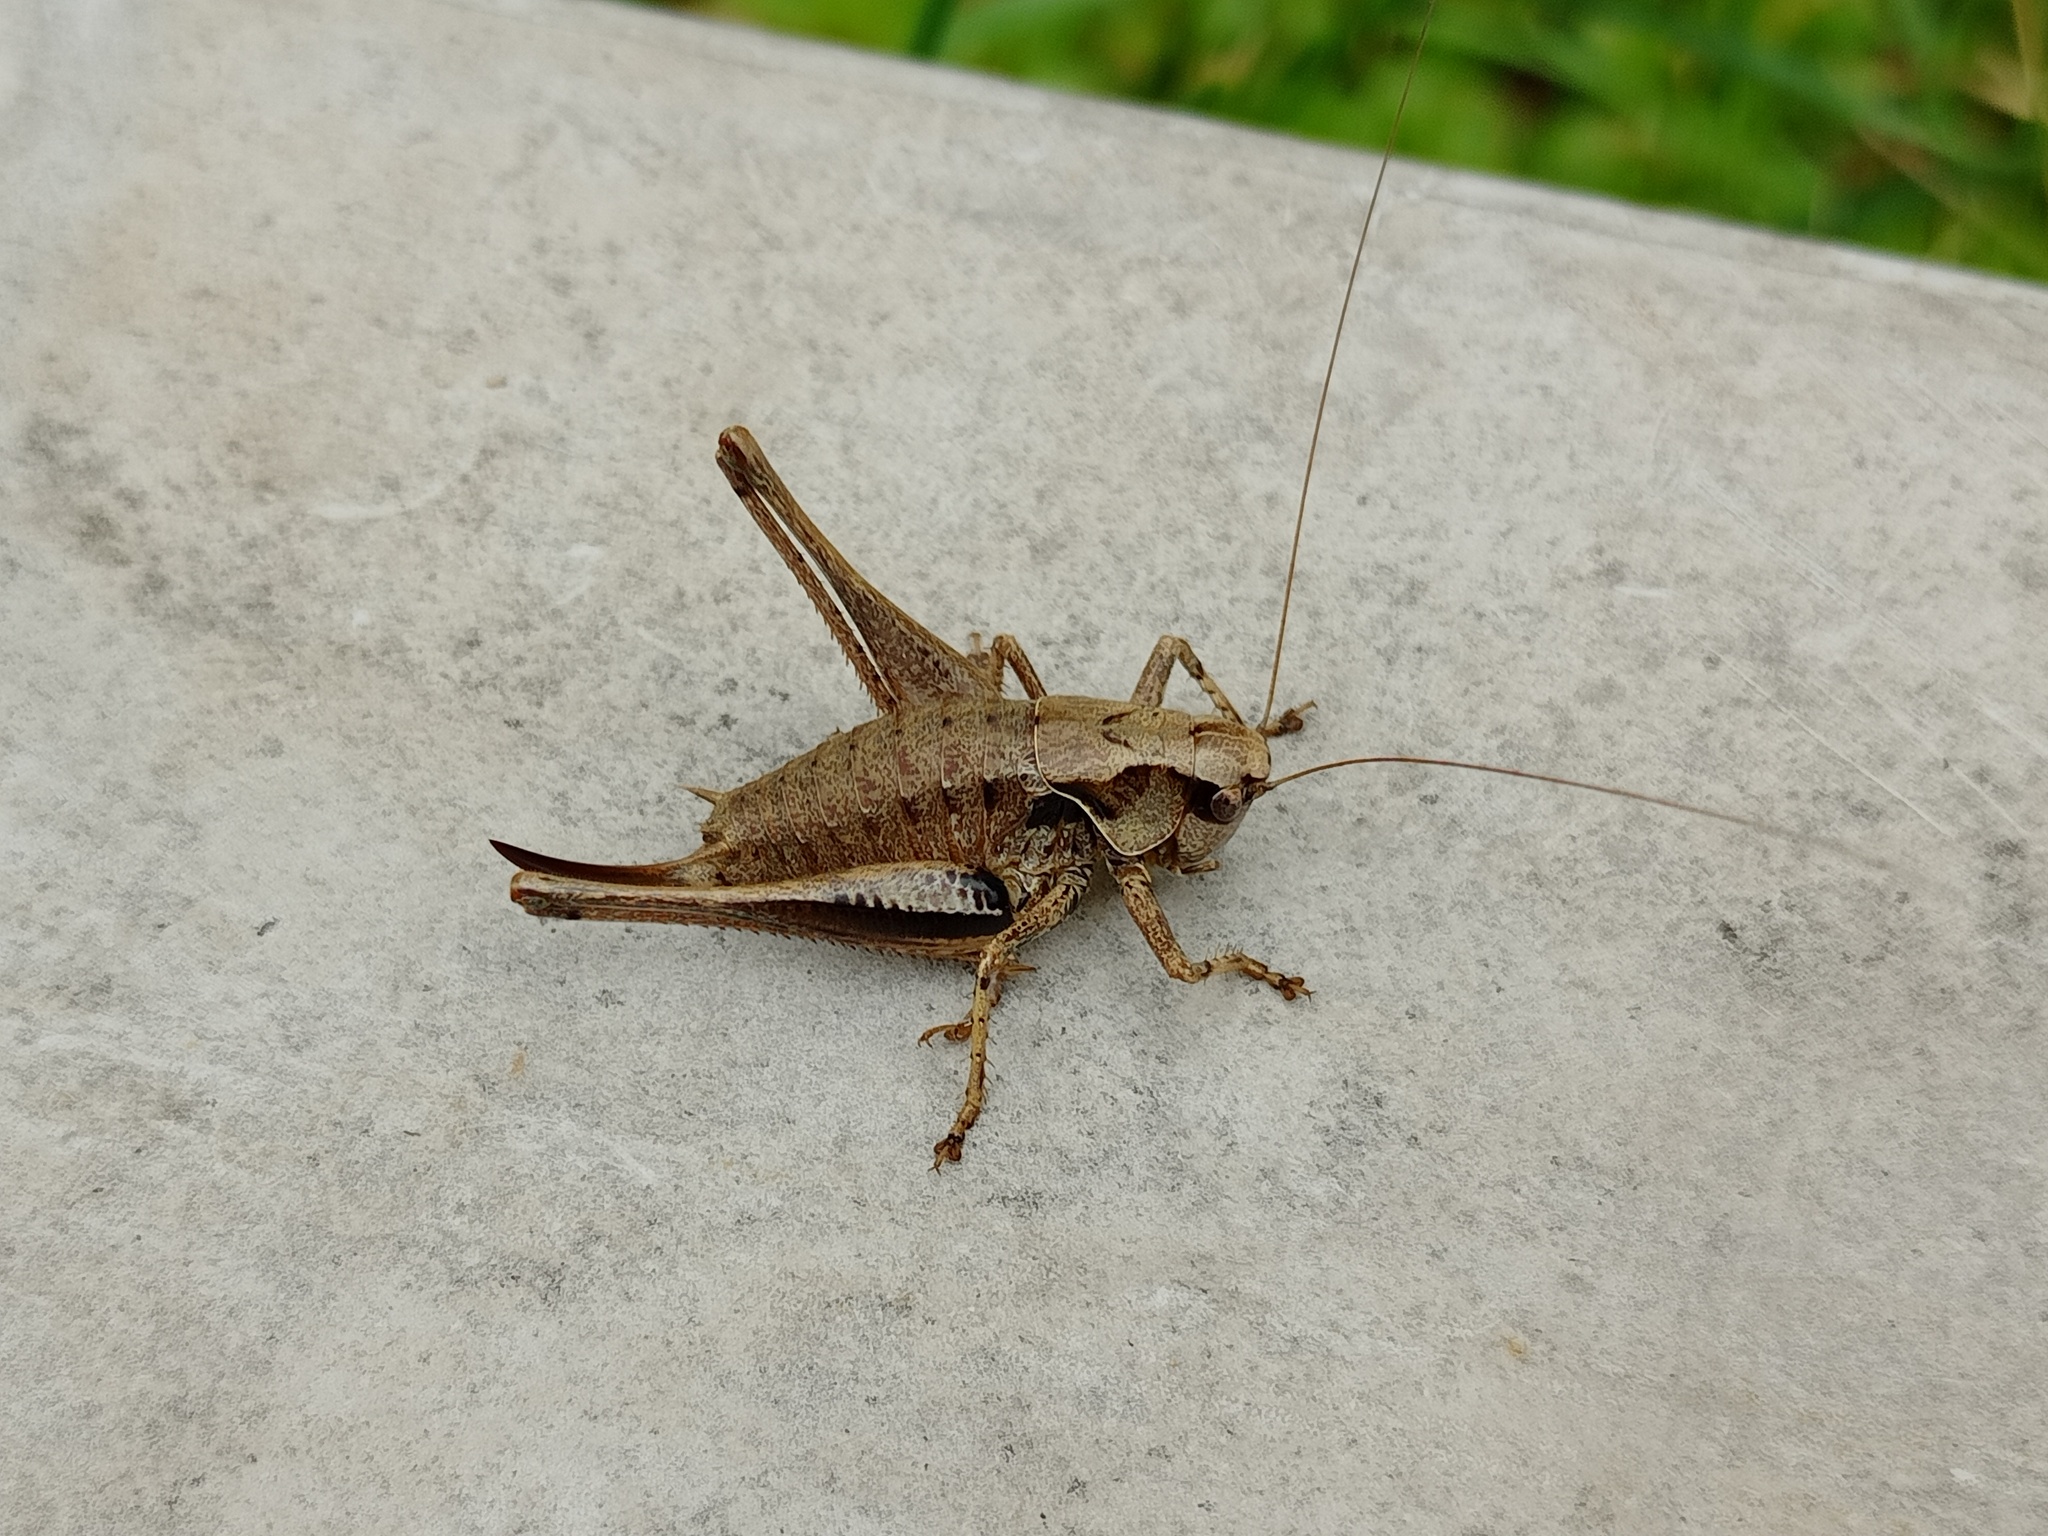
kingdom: Animalia
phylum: Arthropoda
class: Insecta
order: Orthoptera
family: Tettigoniidae
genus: Pholidoptera
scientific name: Pholidoptera griseoaptera
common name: Dark bush-cricket
